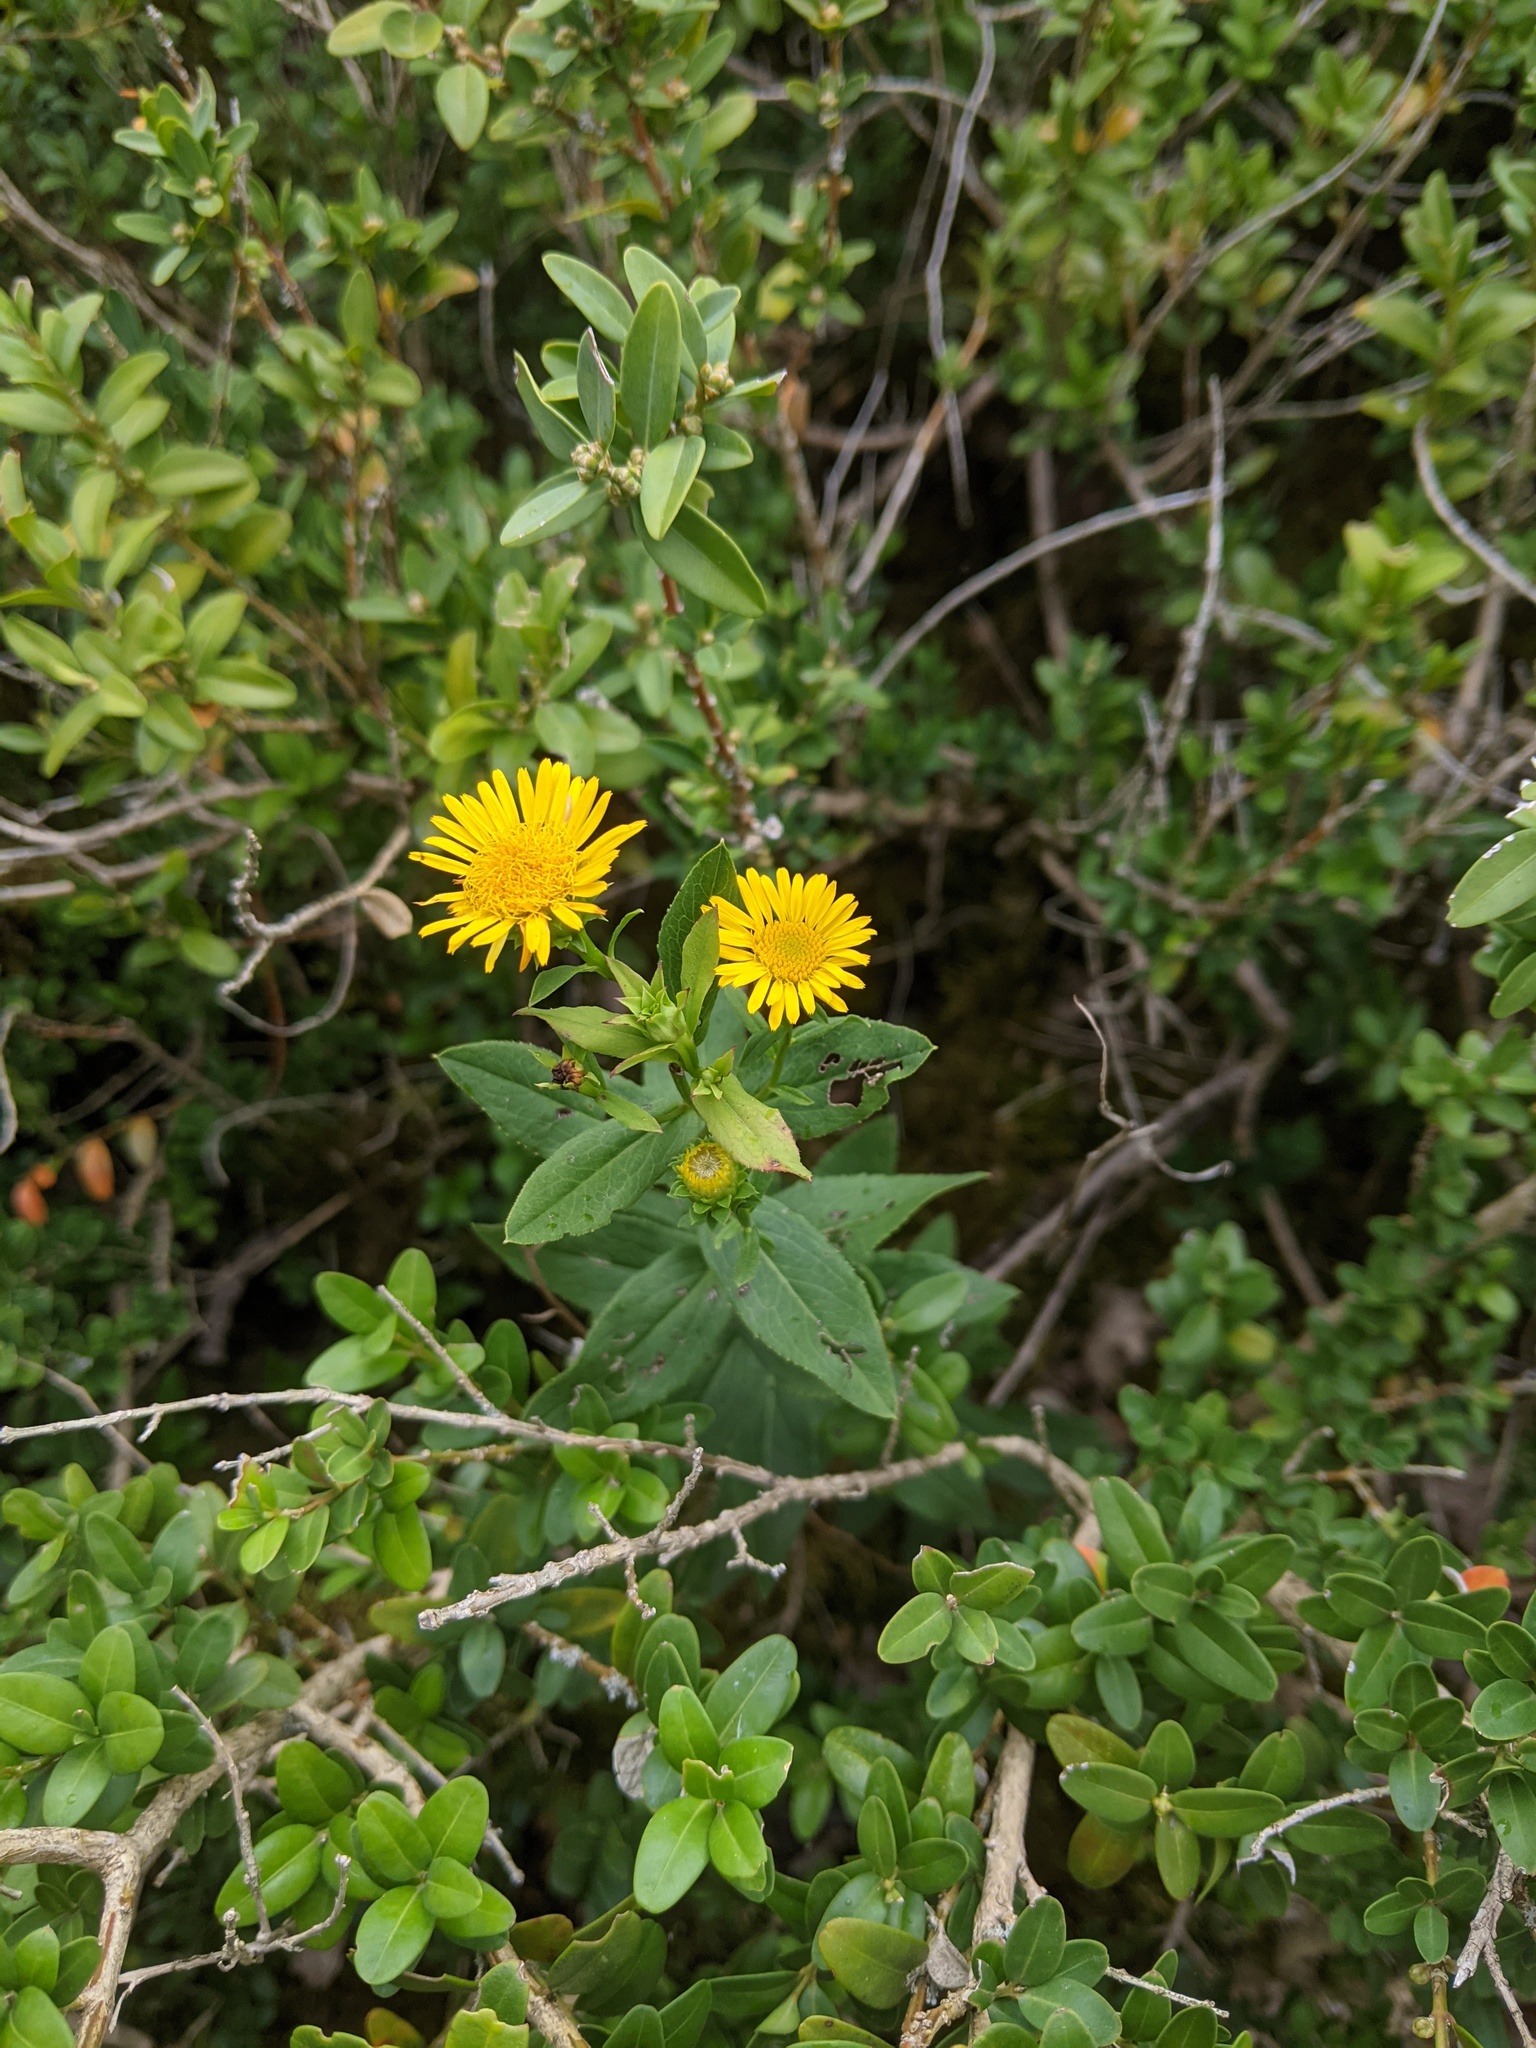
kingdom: Plantae
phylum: Tracheophyta
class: Magnoliopsida
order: Asterales
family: Asteraceae
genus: Pentanema
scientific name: Pentanema spiraeifolium
